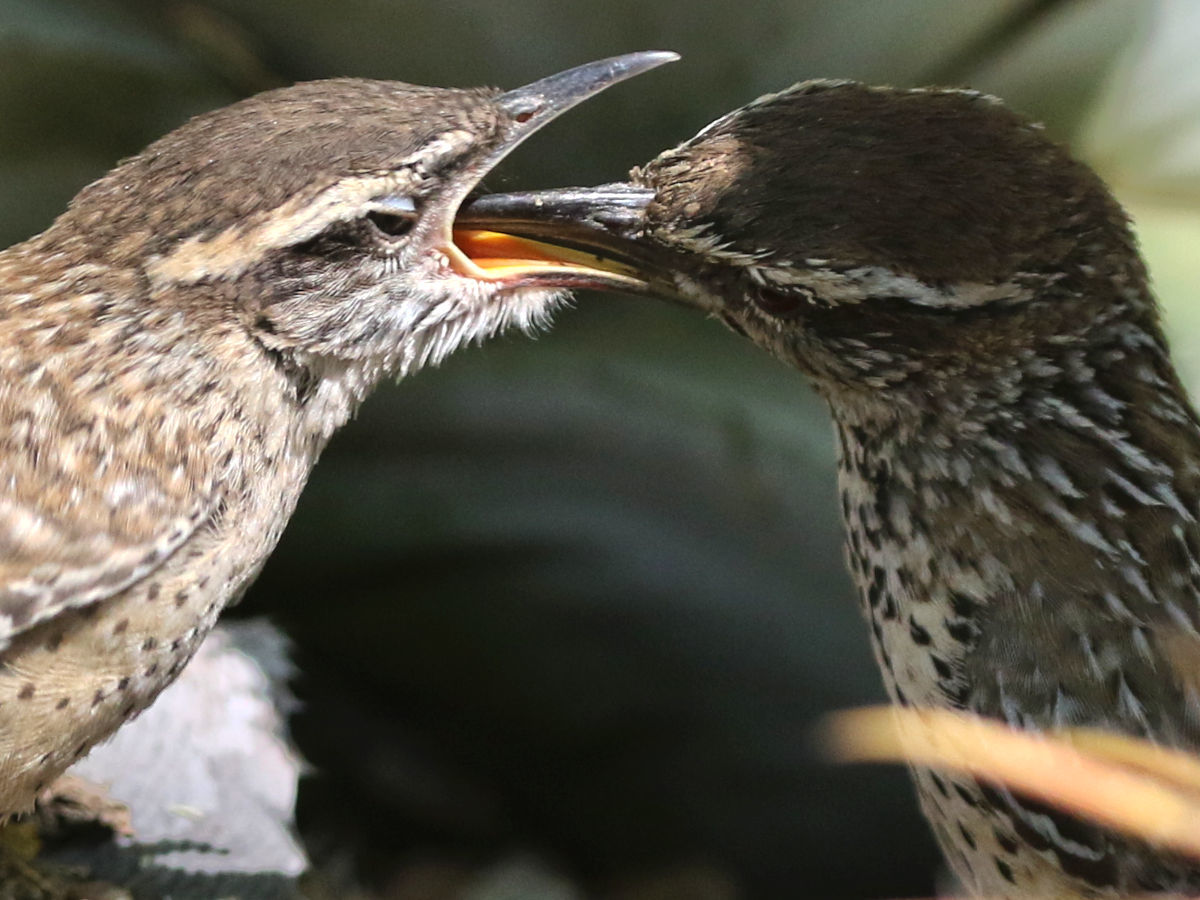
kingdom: Animalia
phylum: Chordata
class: Aves
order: Passeriformes
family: Troglodytidae
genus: Campylorhynchus
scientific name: Campylorhynchus brunneicapillus
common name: Cactus wren
